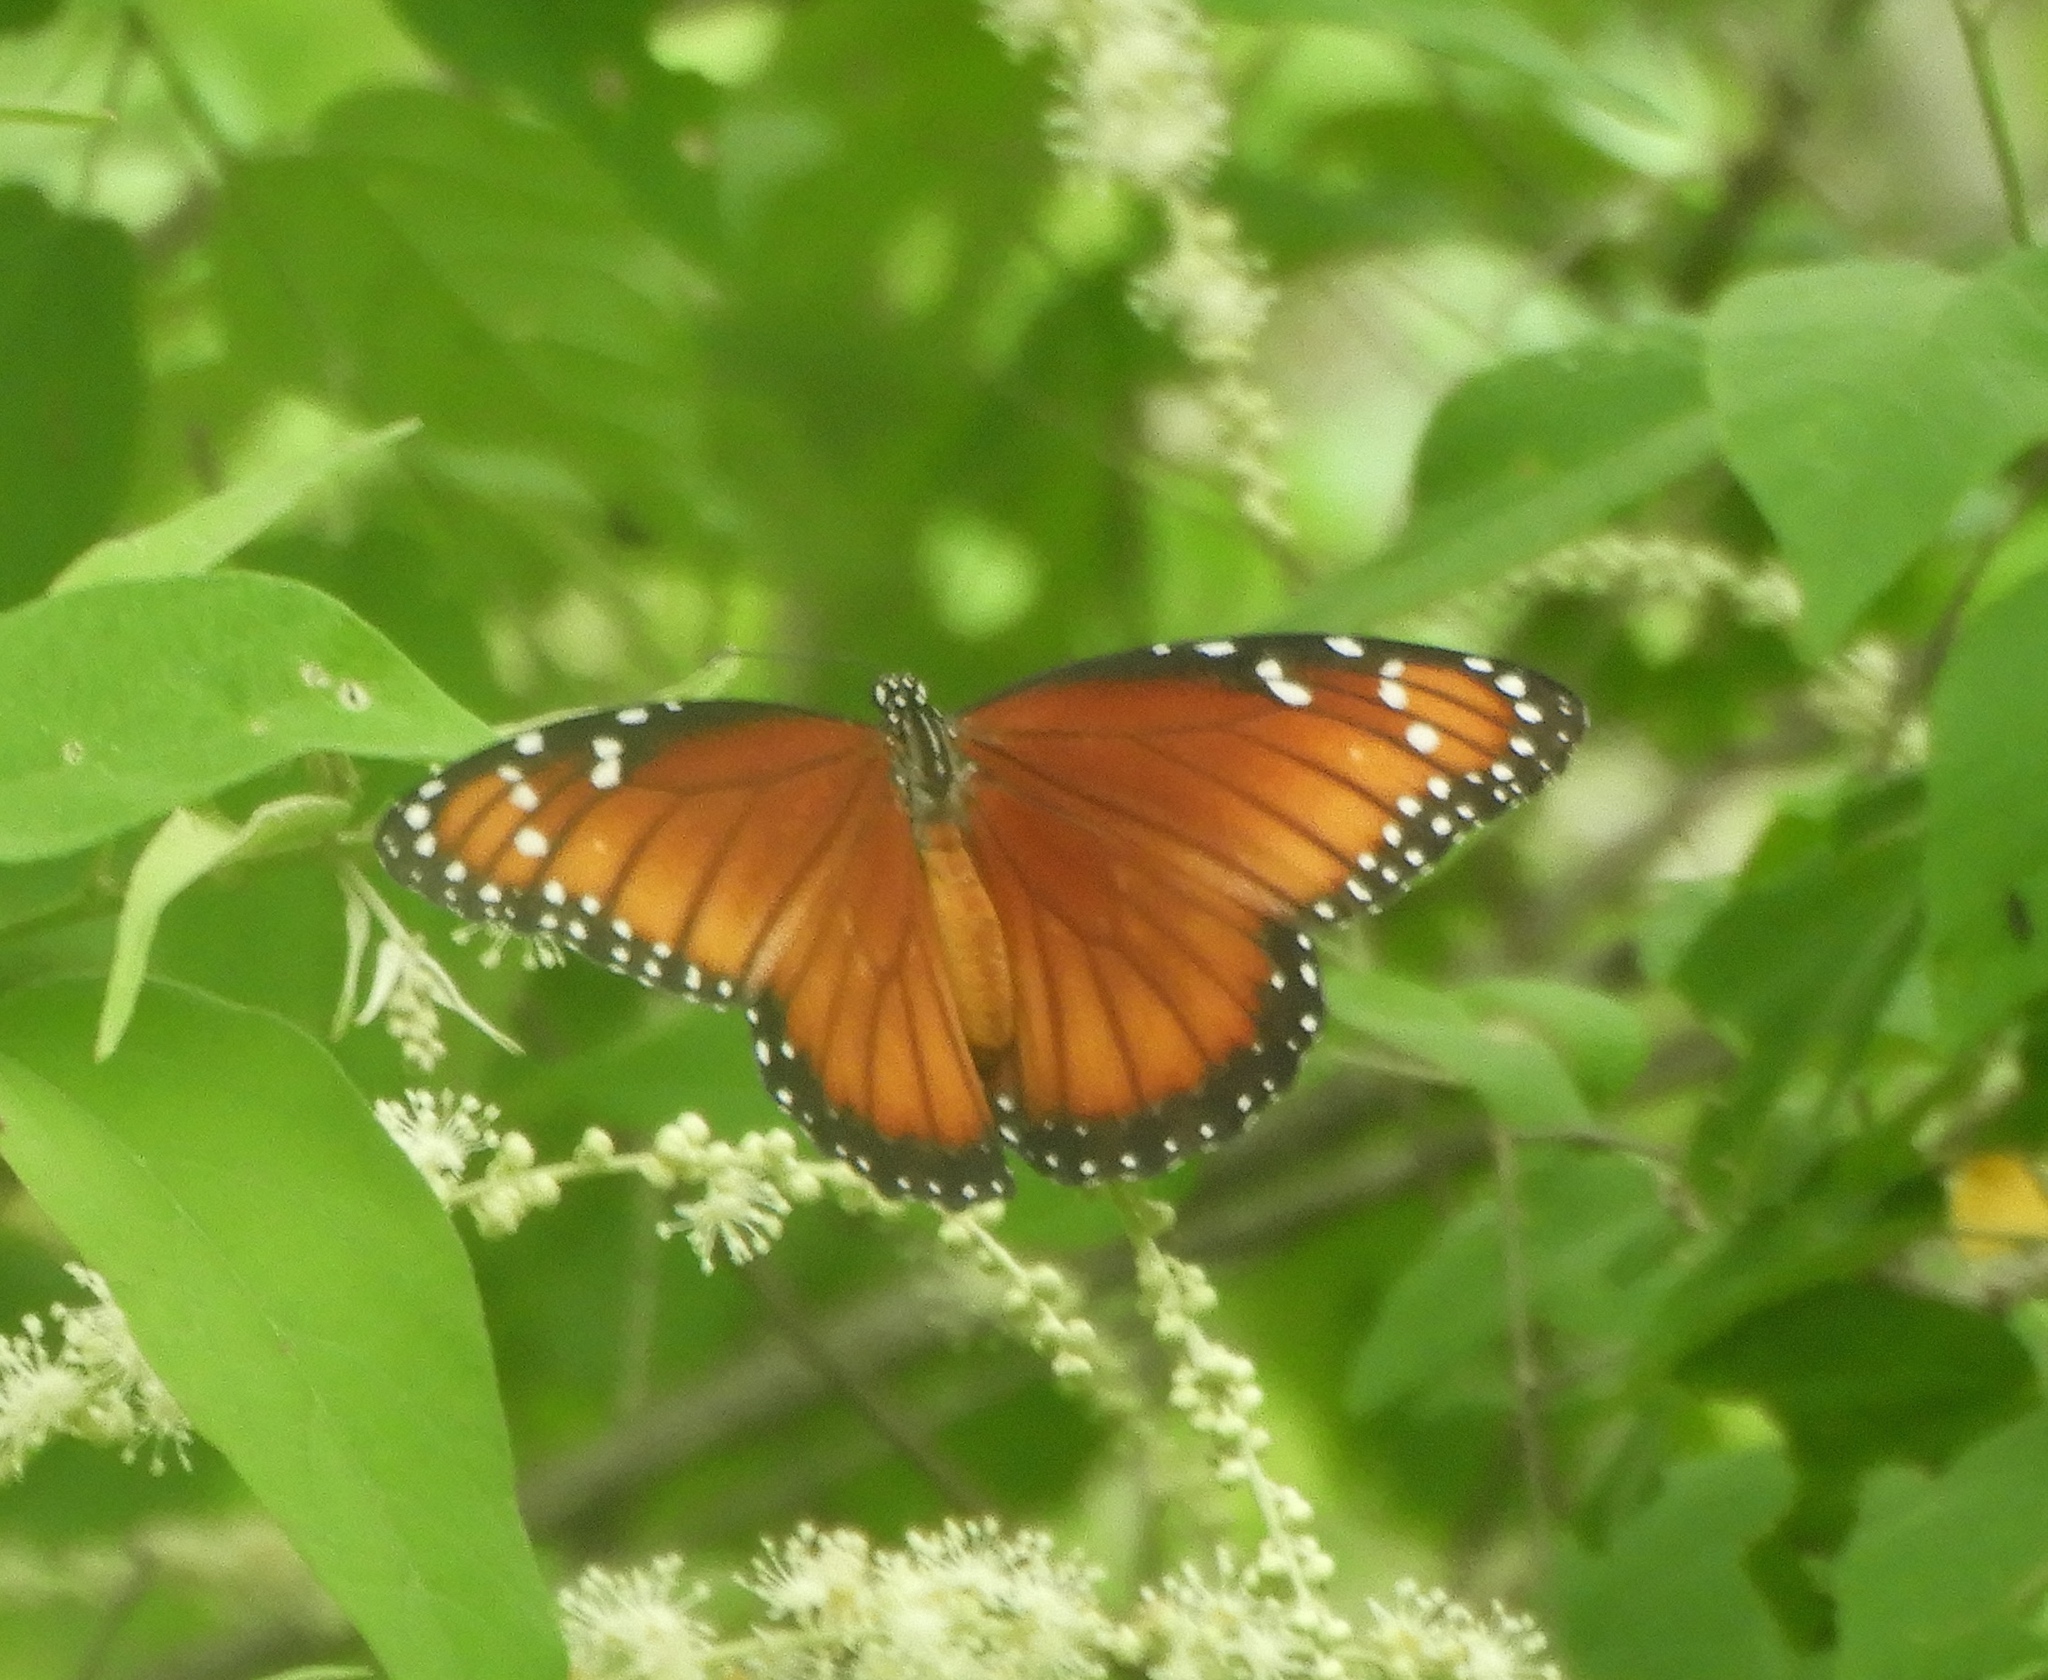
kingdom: Animalia
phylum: Arthropoda
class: Insecta
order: Lepidoptera
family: Nymphalidae
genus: Danaus
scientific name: Danaus eresimus
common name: Soldier
